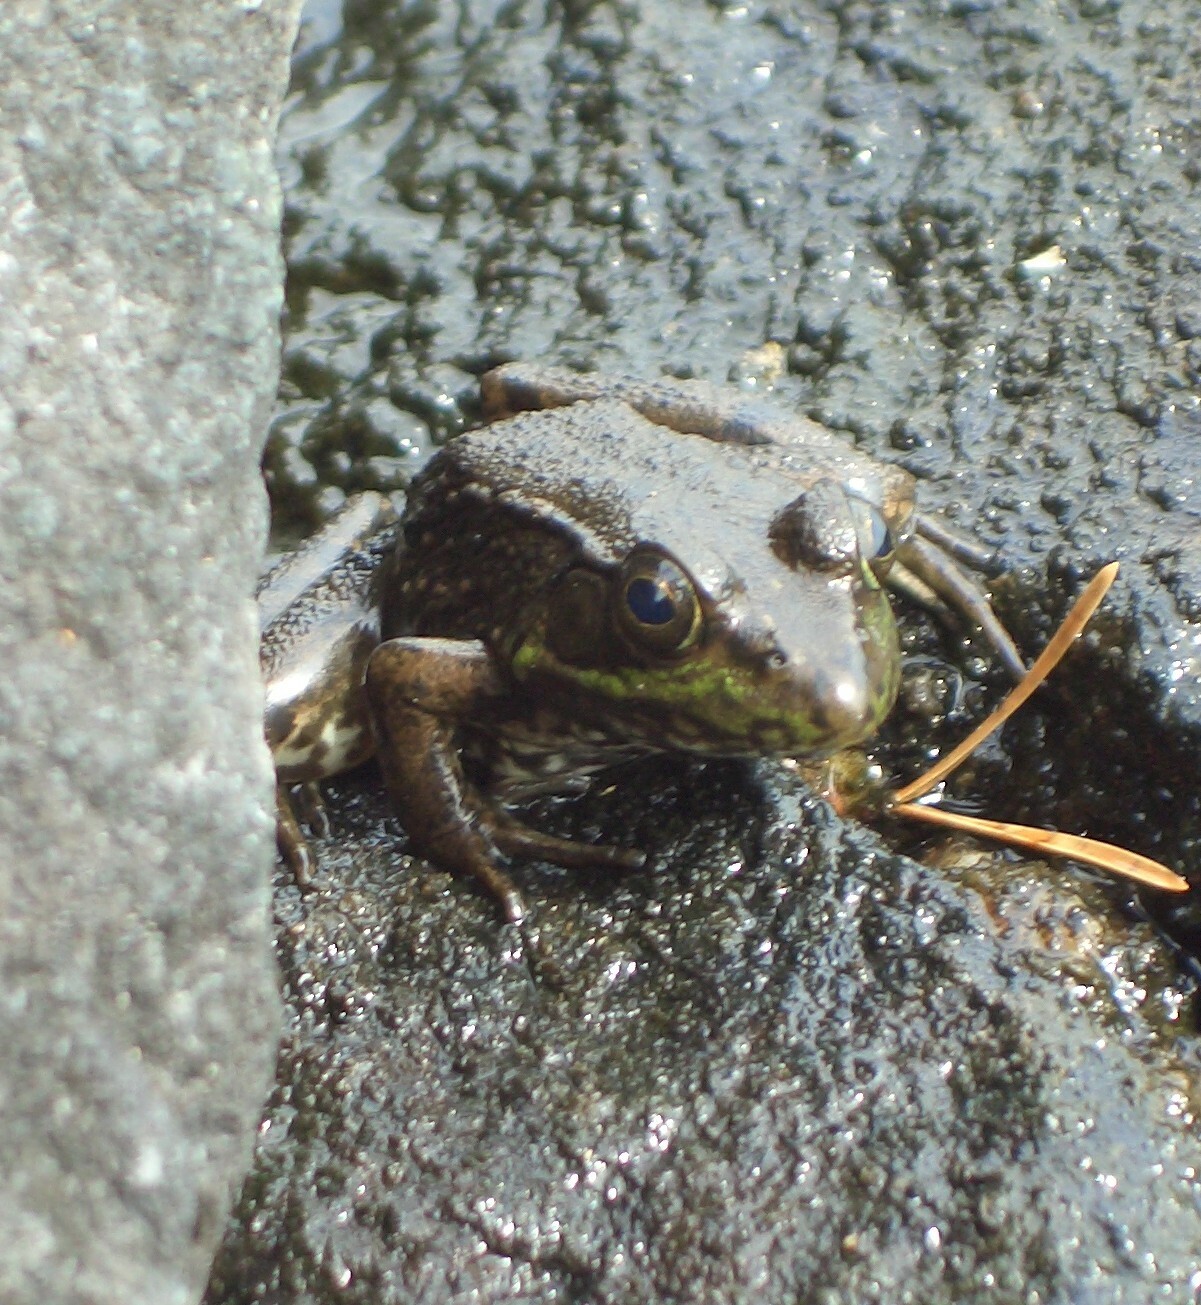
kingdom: Animalia
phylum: Chordata
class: Amphibia
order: Anura
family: Ranidae
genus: Lithobates
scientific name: Lithobates clamitans
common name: Green frog
